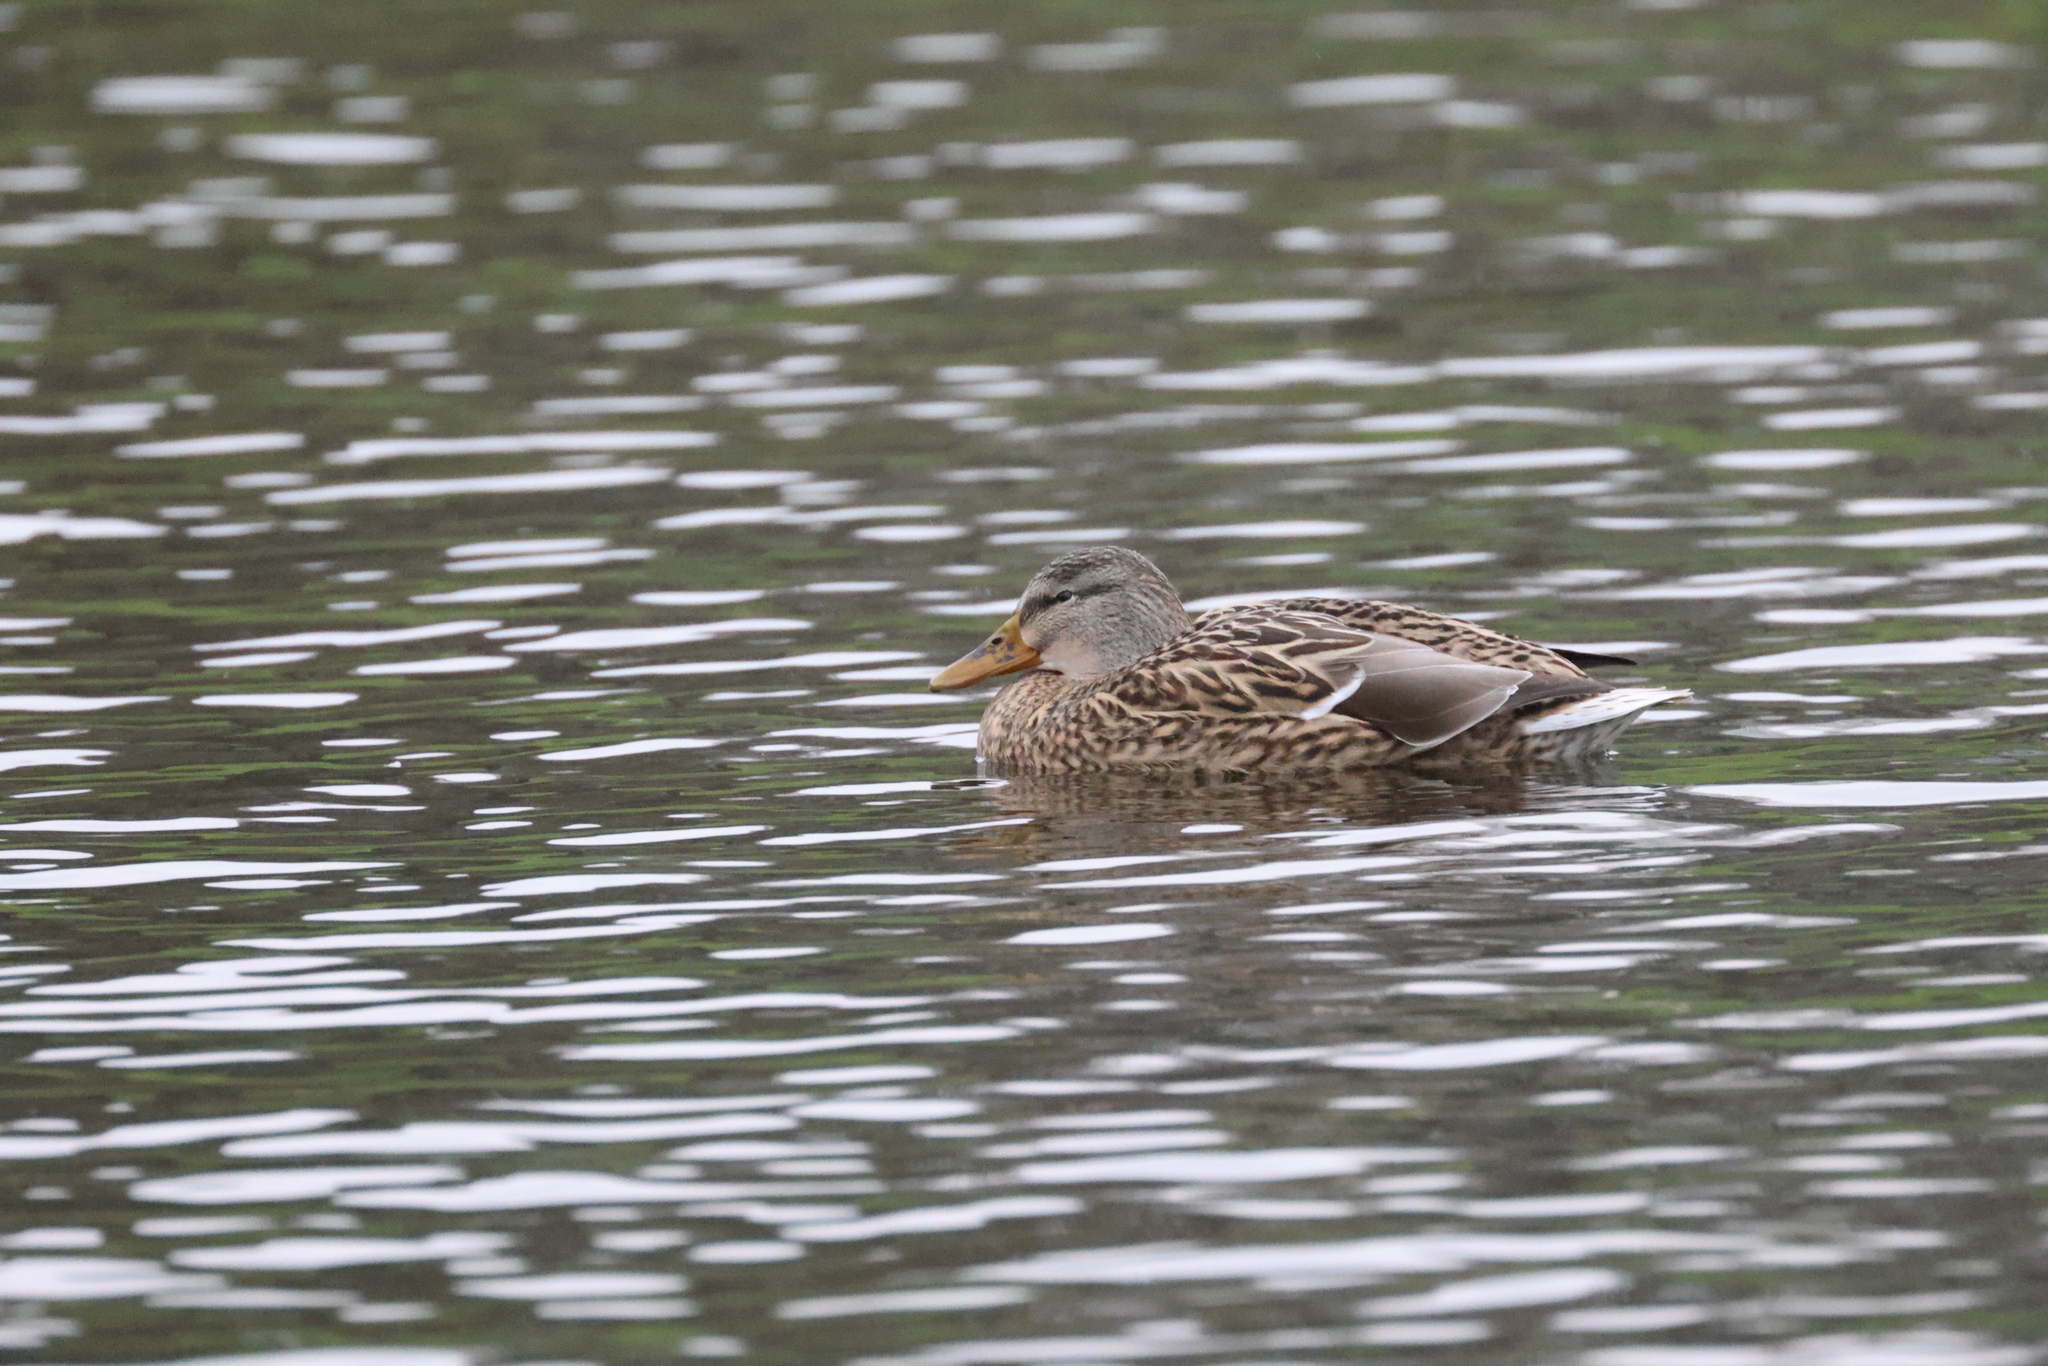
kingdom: Animalia
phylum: Chordata
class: Aves
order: Anseriformes
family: Anatidae
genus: Anas
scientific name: Anas platyrhynchos
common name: Mallard
